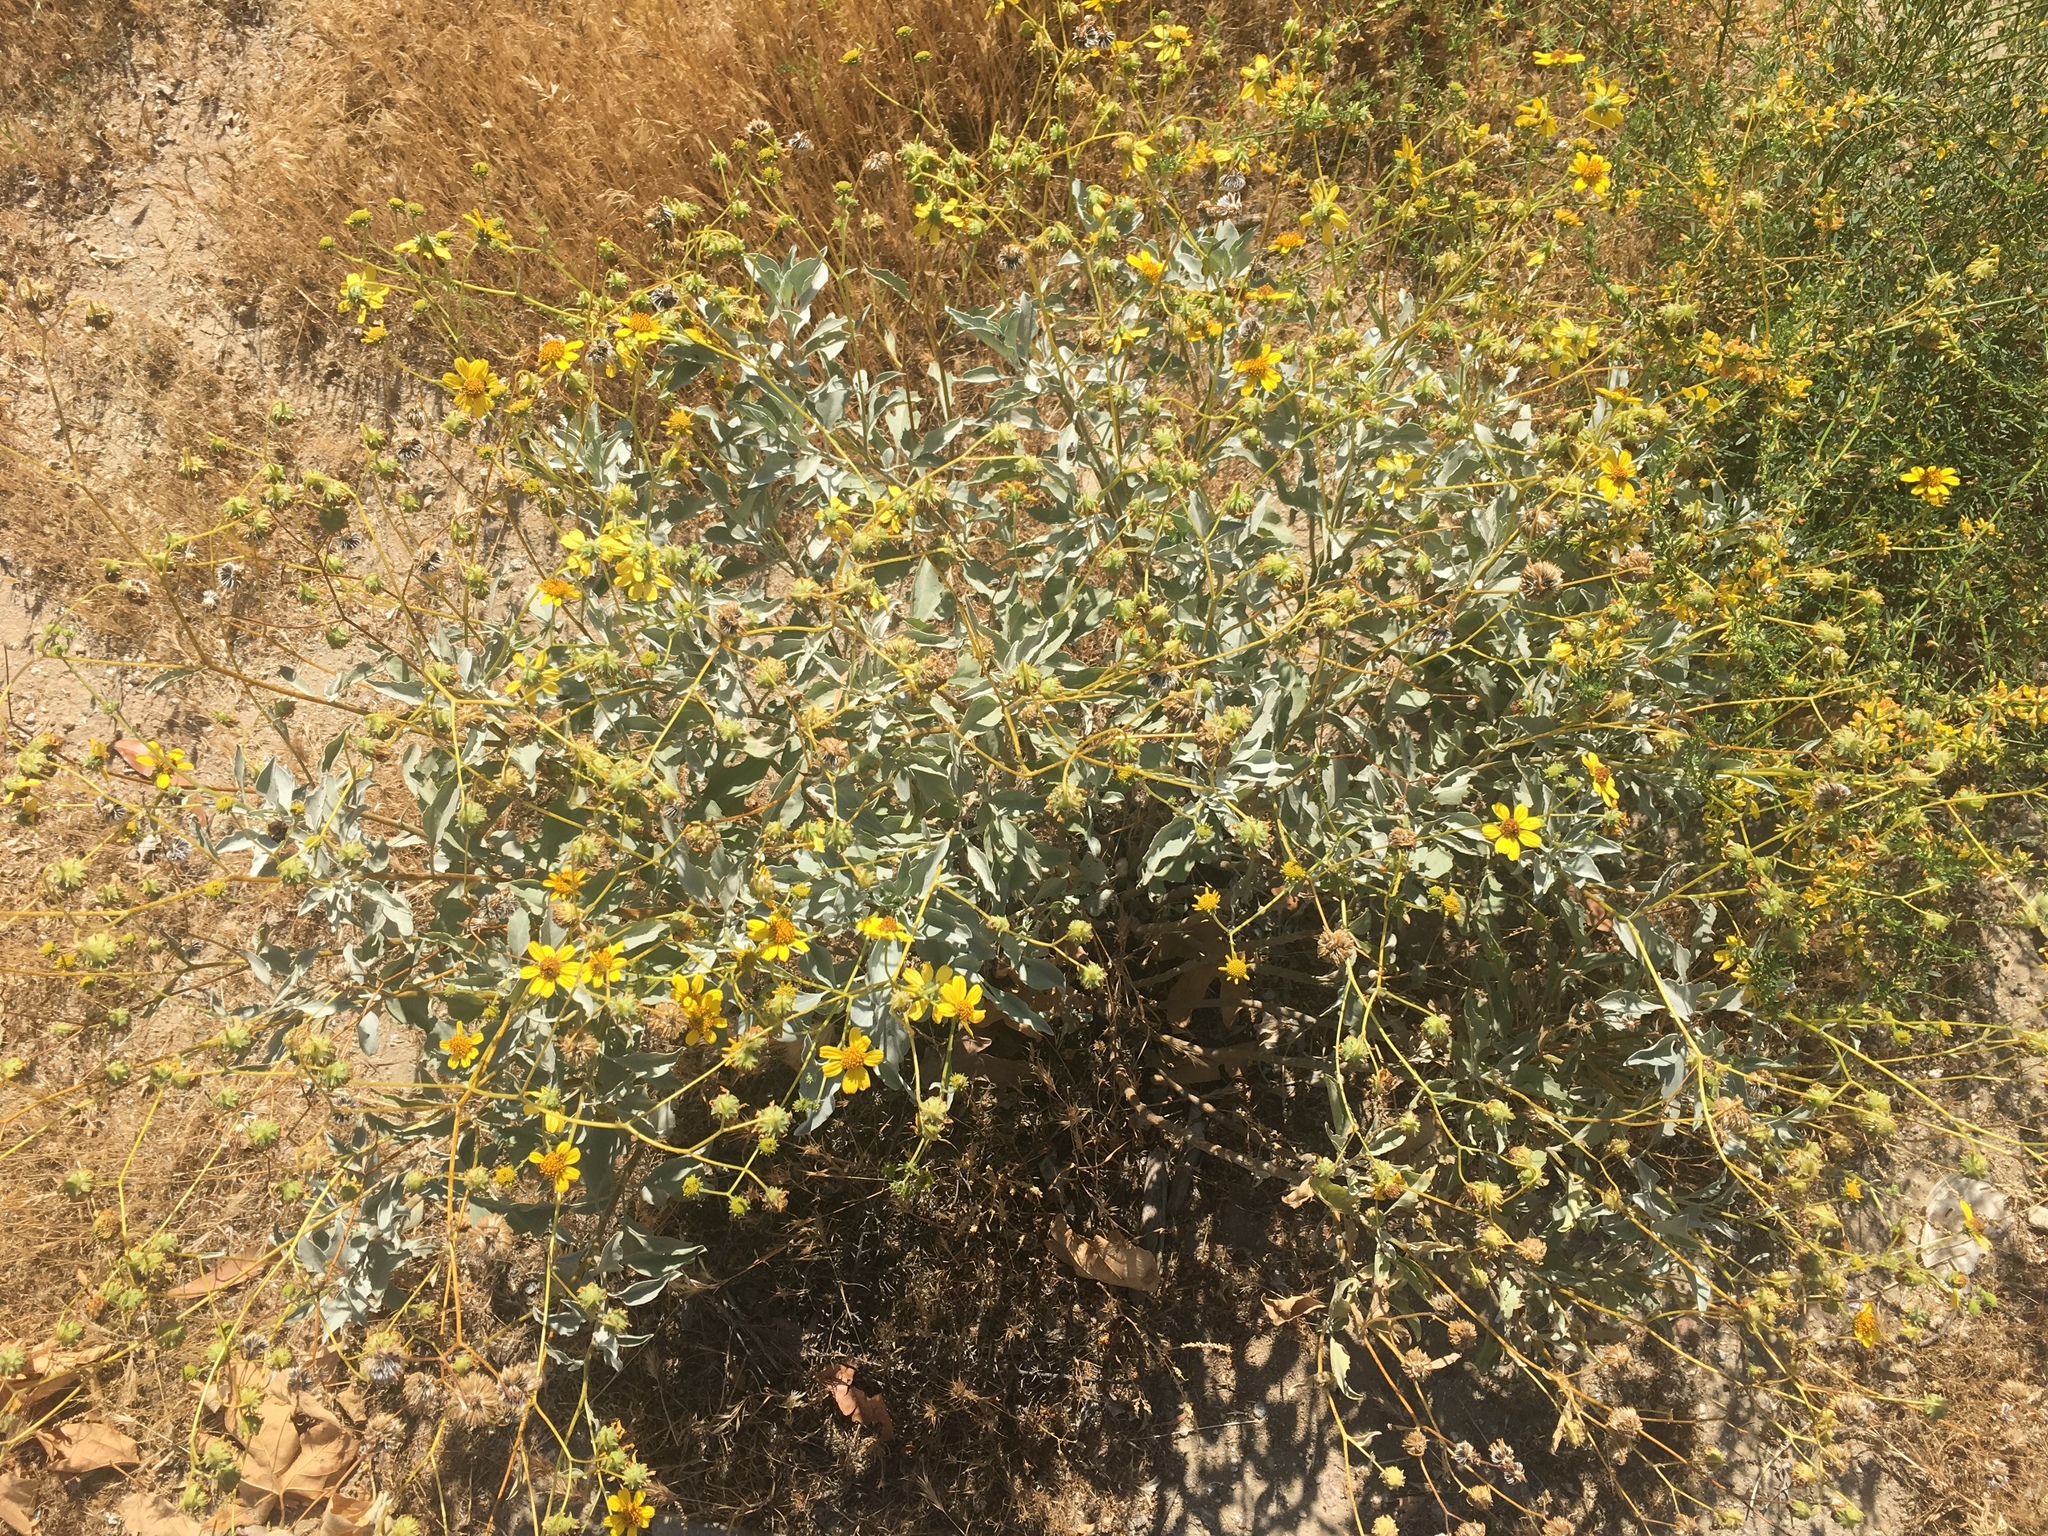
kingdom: Plantae
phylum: Tracheophyta
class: Magnoliopsida
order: Asterales
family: Asteraceae
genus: Encelia
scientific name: Encelia farinosa
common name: Brittlebush
